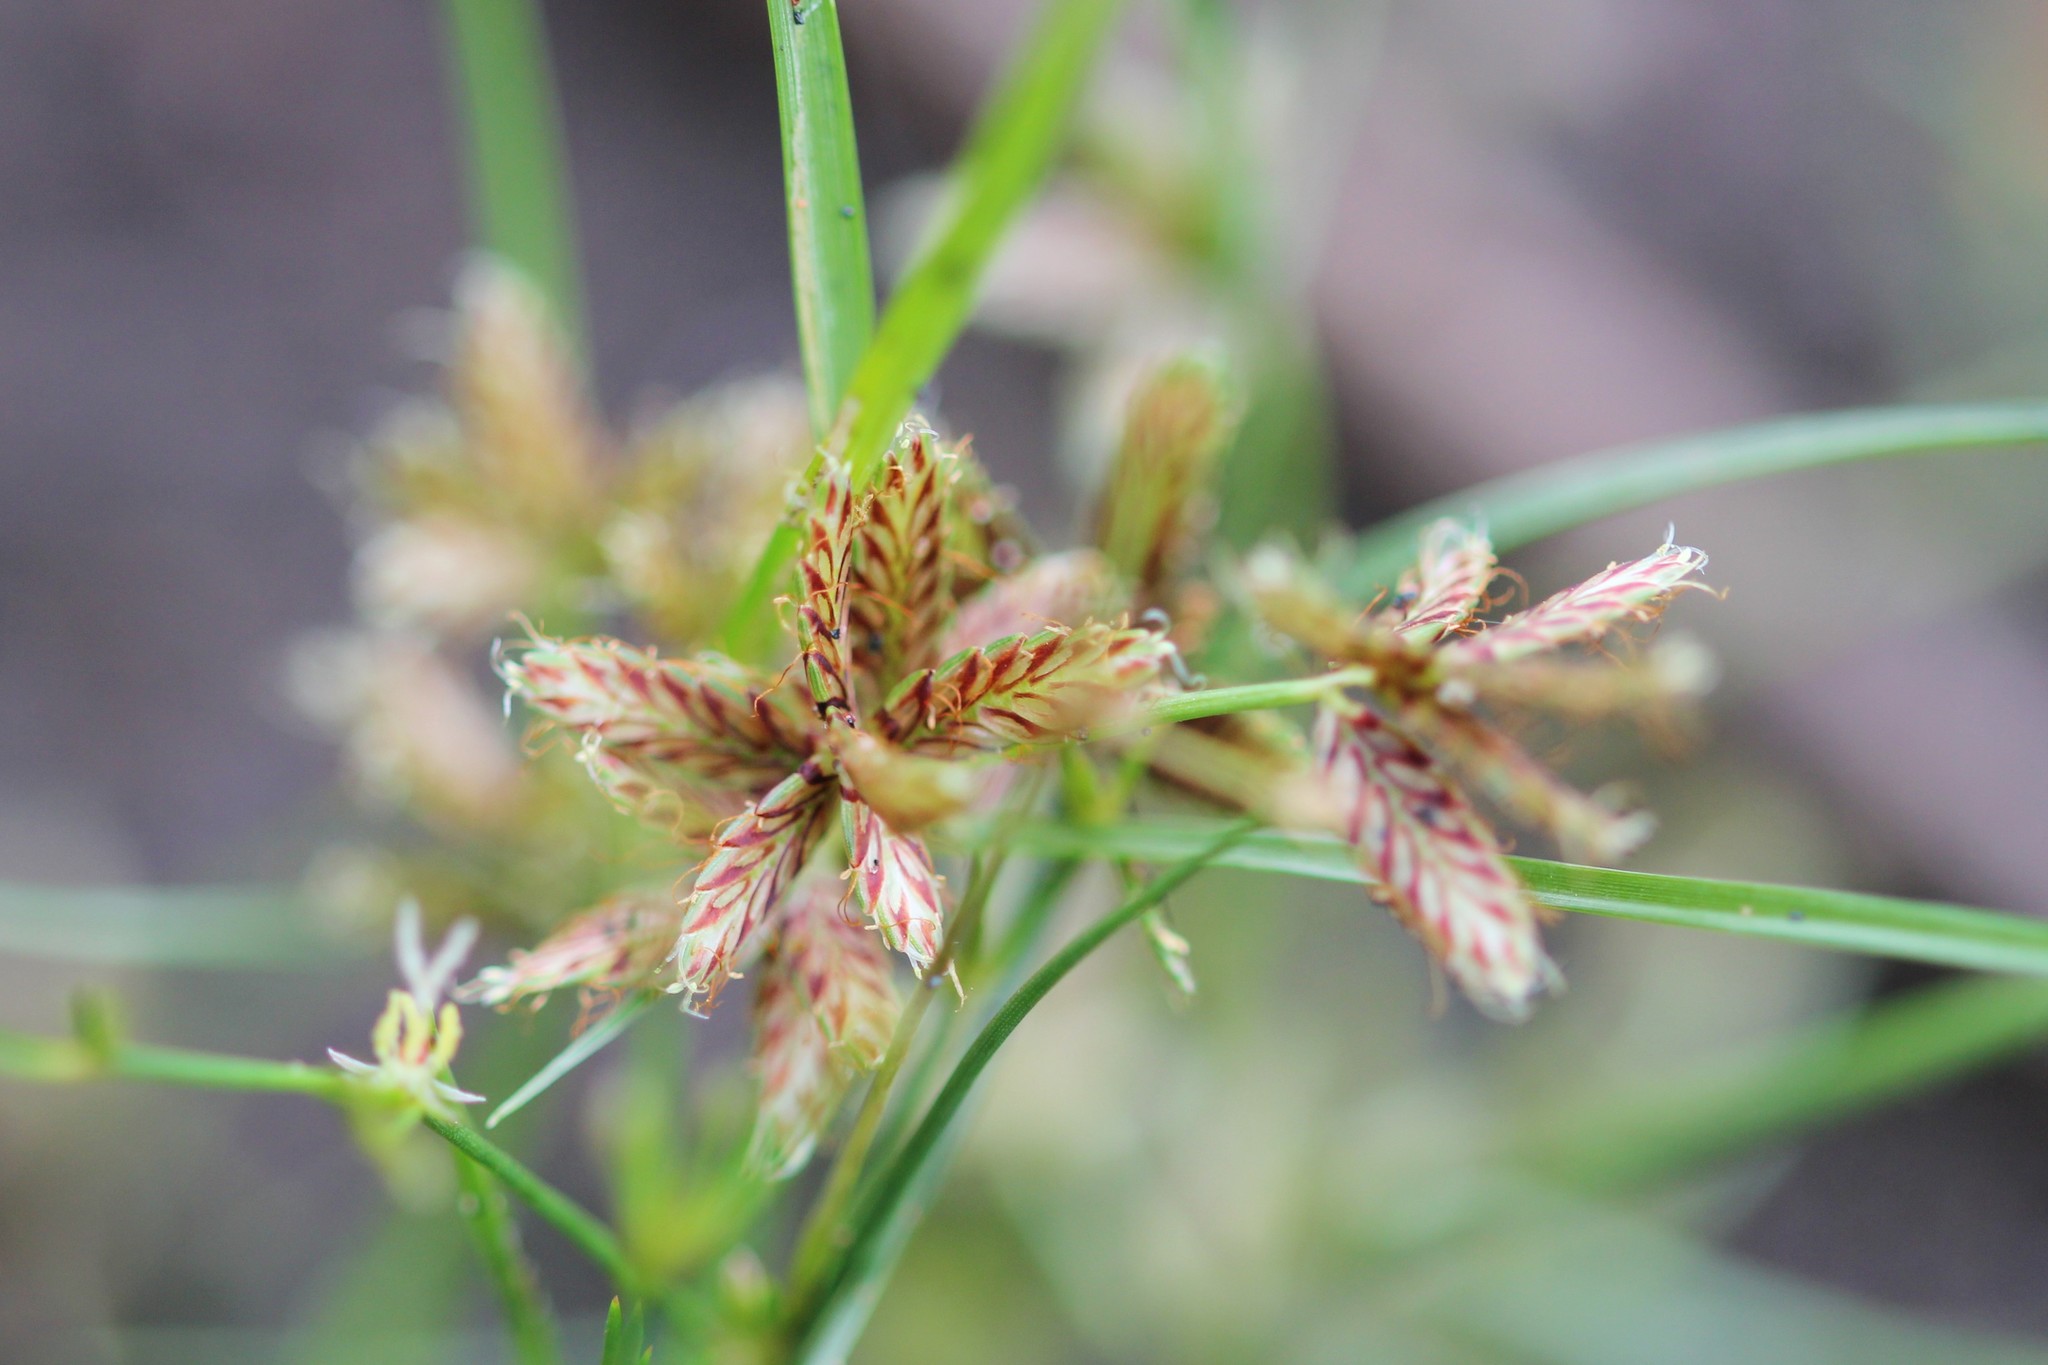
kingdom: Plantae
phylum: Tracheophyta
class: Liliopsida
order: Poales
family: Cyperaceae
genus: Cyperus
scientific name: Cyperus diandrus
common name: Low cyperus
